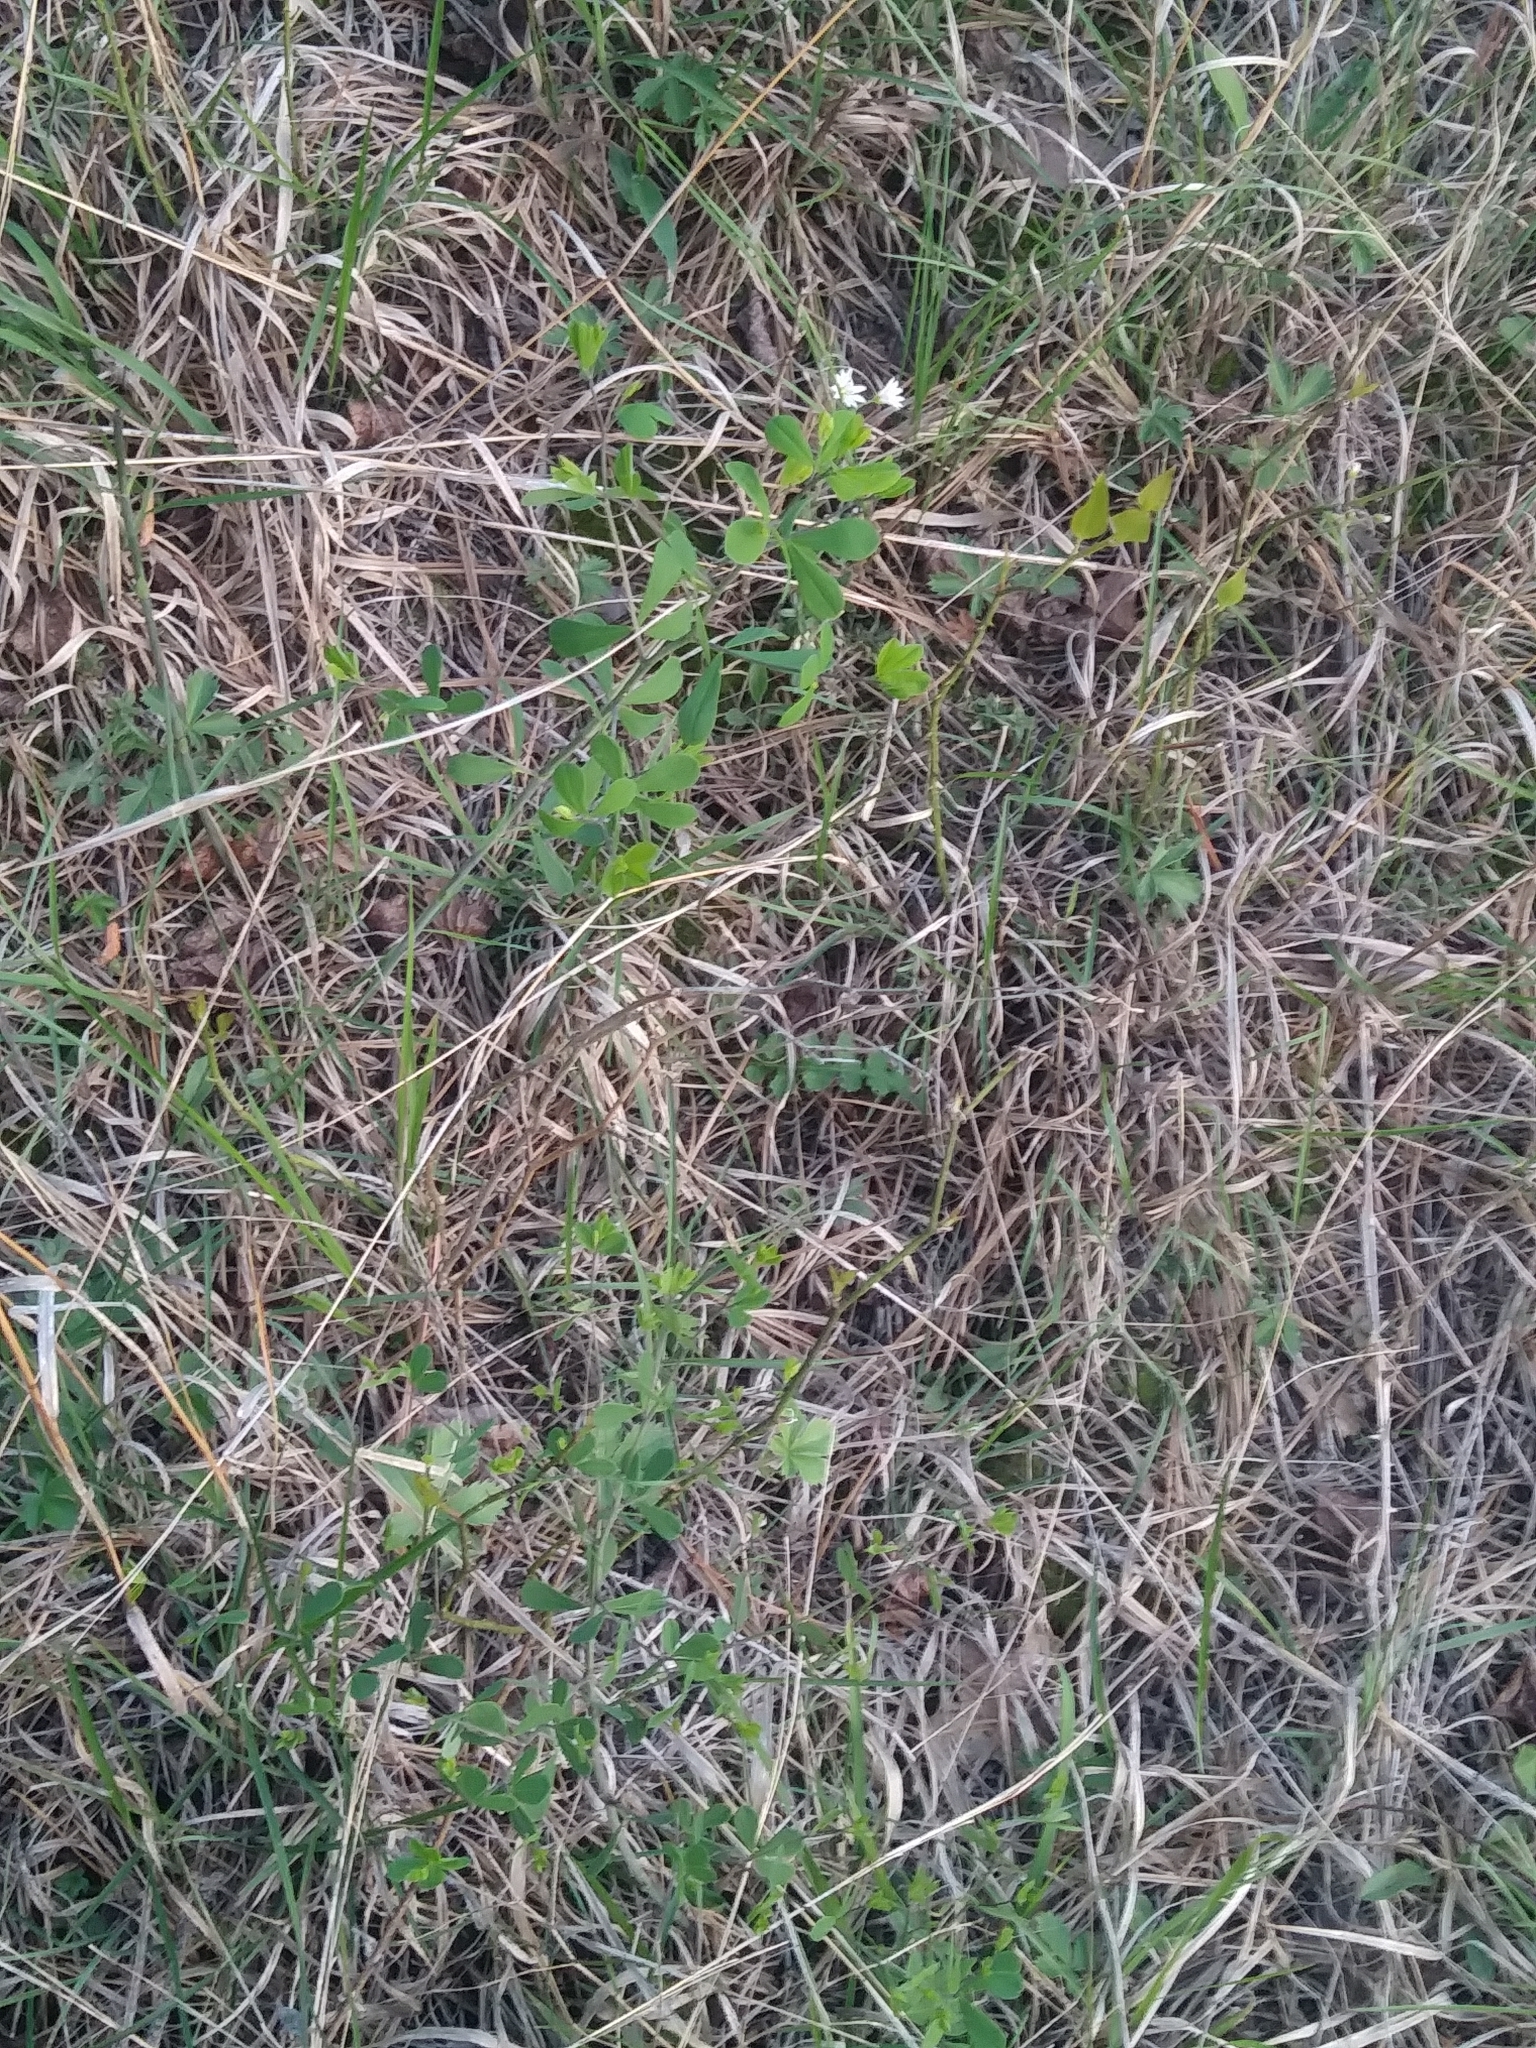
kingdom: Plantae
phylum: Tracheophyta
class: Magnoliopsida
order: Fabales
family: Fabaceae
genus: Baptisia
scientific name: Baptisia tinctoria
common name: Wild indigo
